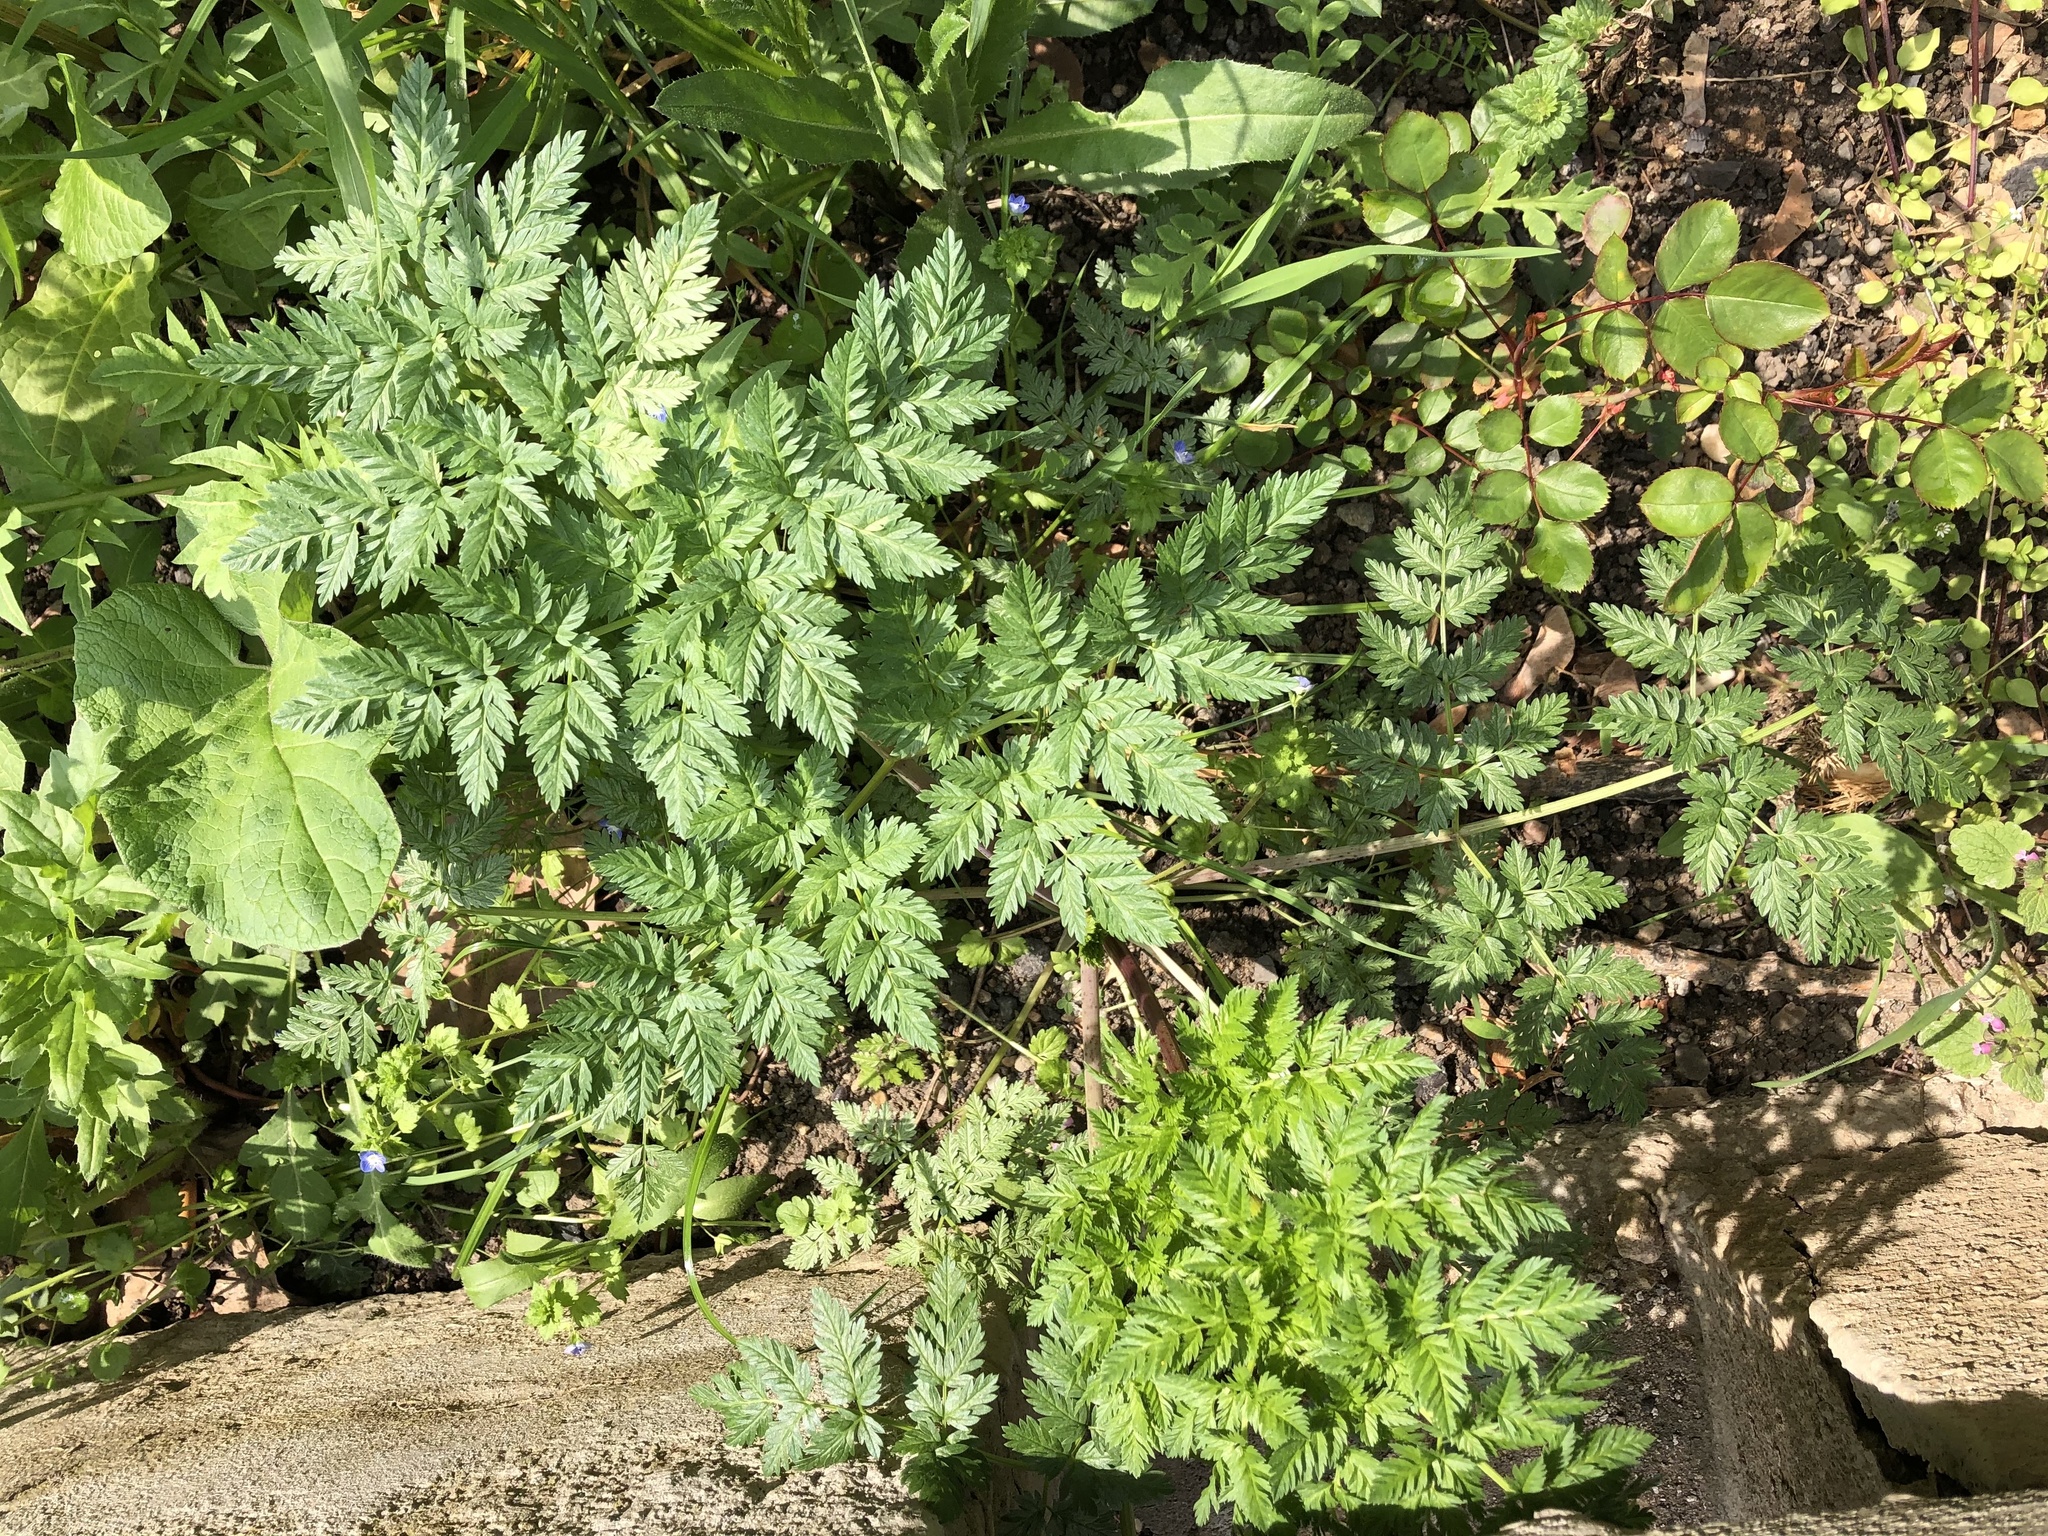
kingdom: Plantae
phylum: Tracheophyta
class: Magnoliopsida
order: Apiales
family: Apiaceae
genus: Anthriscus
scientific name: Anthriscus sylvestris
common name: Cow parsley
